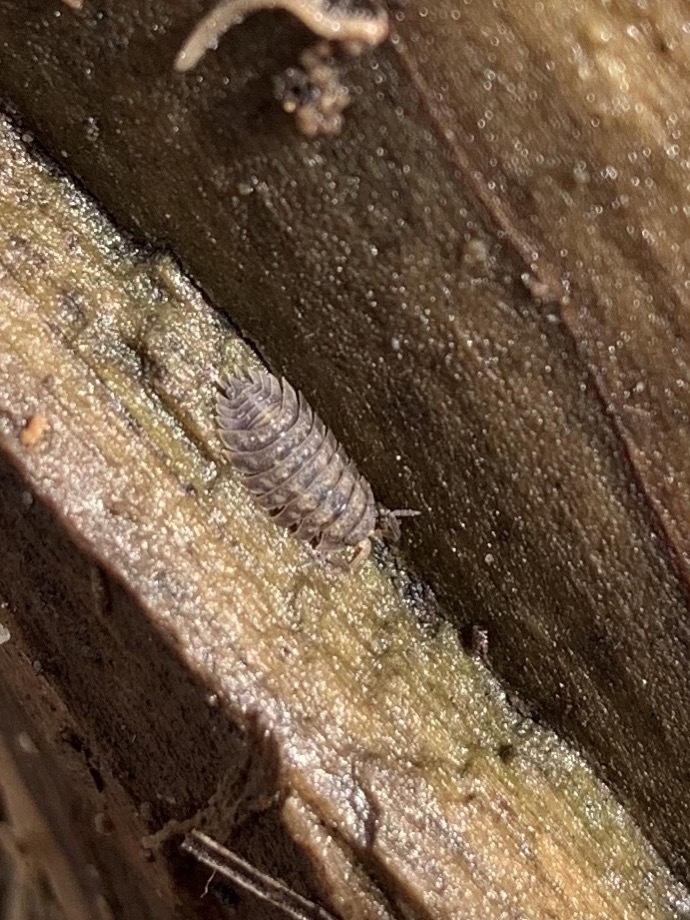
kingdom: Animalia
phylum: Arthropoda
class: Malacostraca
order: Isopoda
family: Oniscidae
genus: Oniscus
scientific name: Oniscus asellus
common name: Common shiny woodlouse
